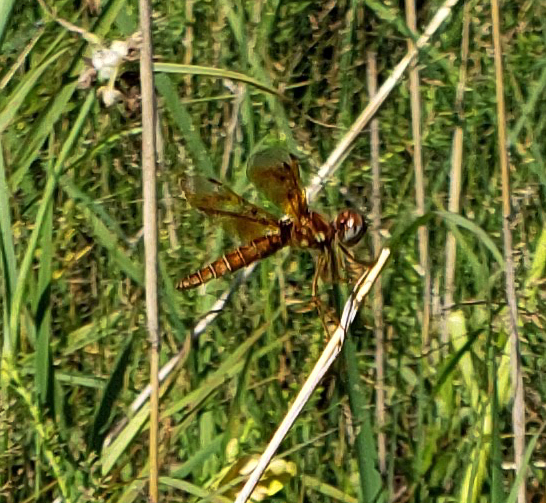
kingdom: Animalia
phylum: Arthropoda
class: Insecta
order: Odonata
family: Libellulidae
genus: Perithemis
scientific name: Perithemis tenera
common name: Eastern amberwing
